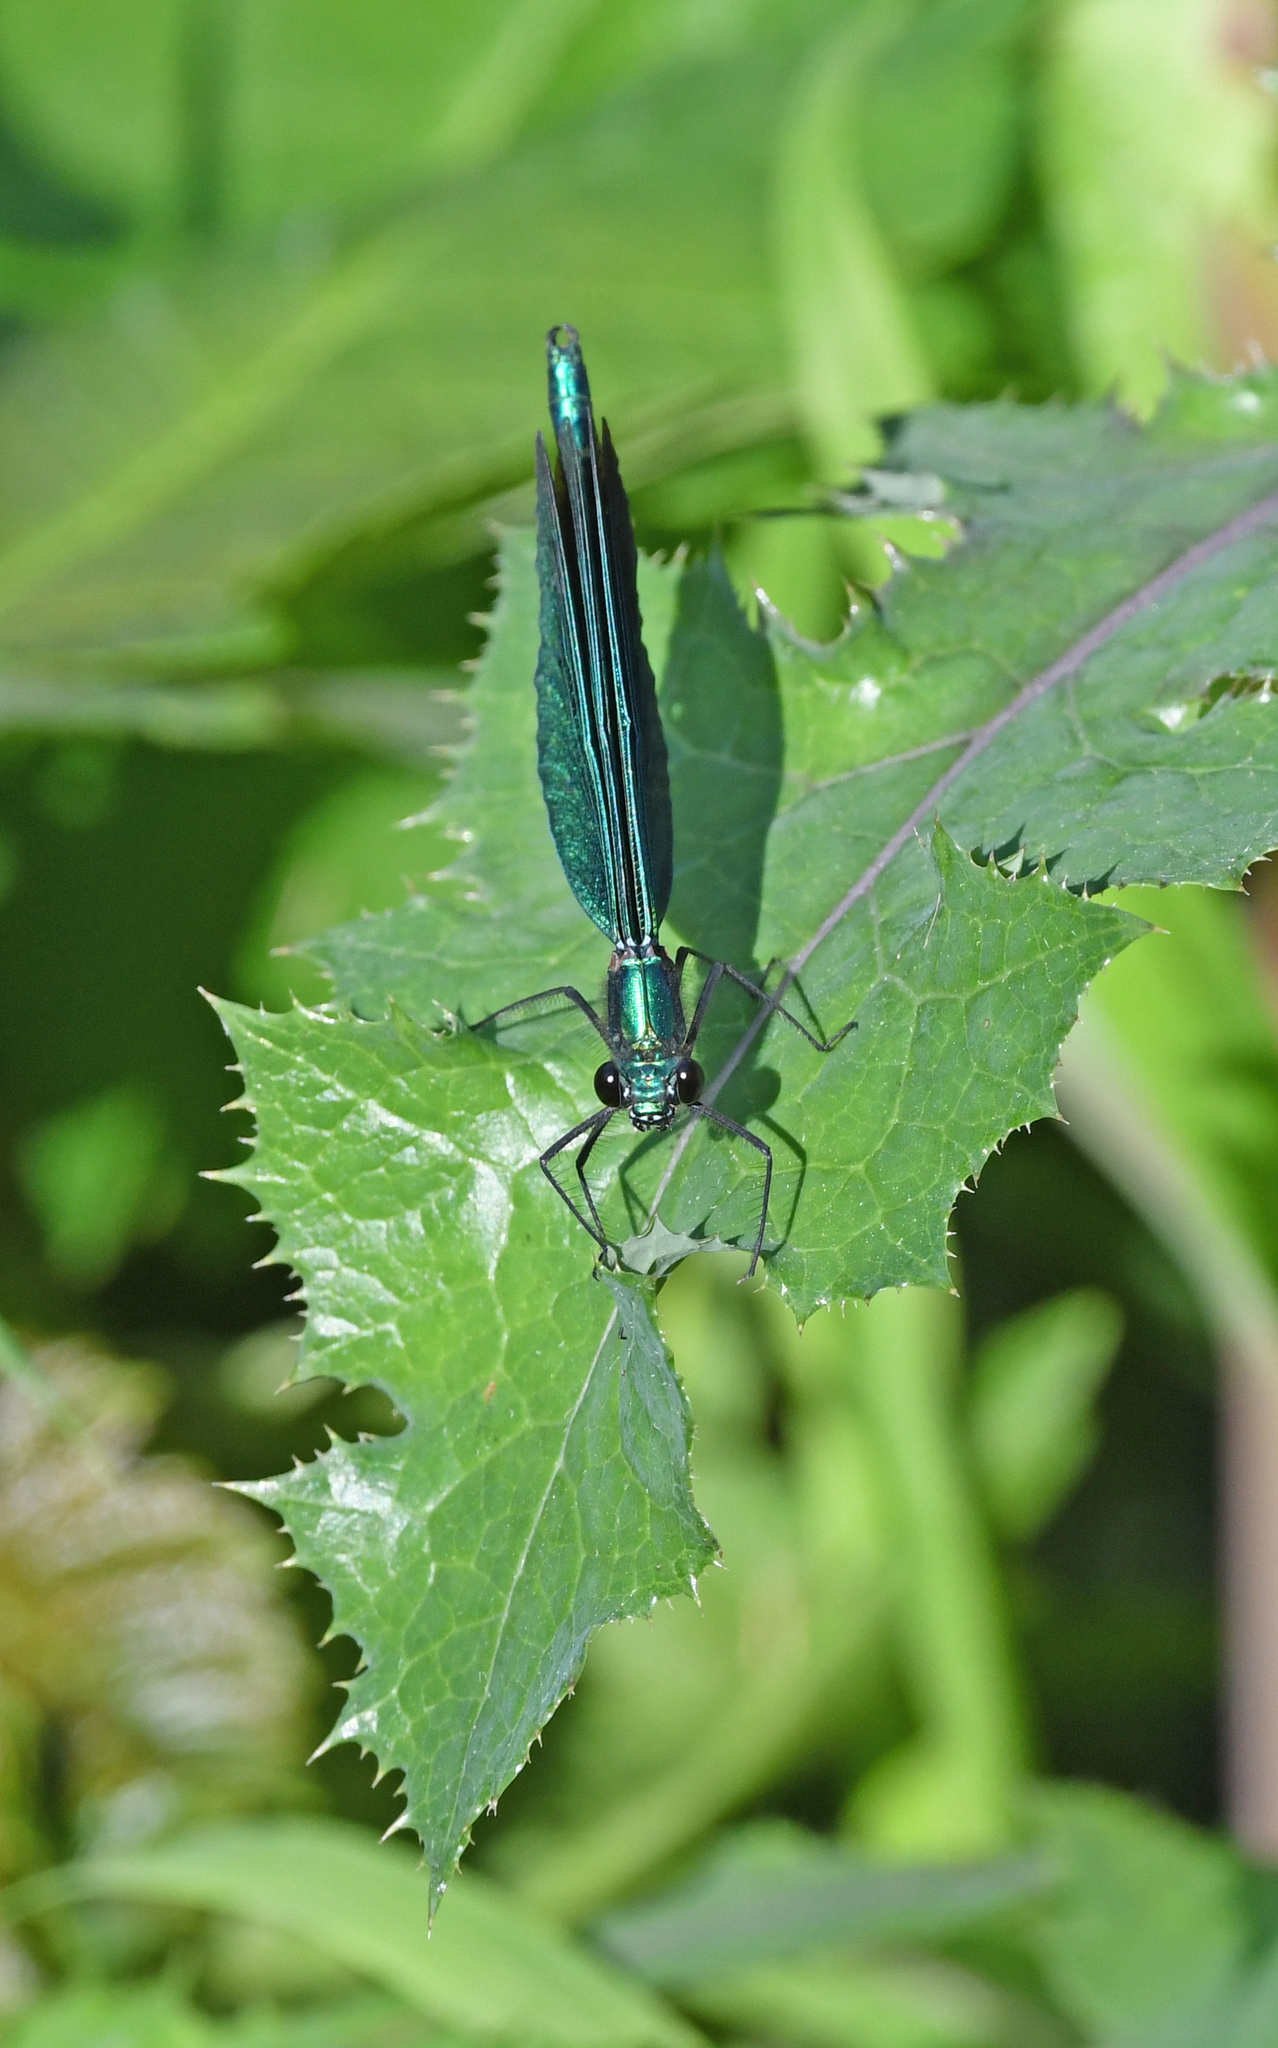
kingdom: Animalia
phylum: Arthropoda
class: Insecta
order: Odonata
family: Calopterygidae
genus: Calopteryx
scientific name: Calopteryx virgo
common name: Beautiful demoiselle
